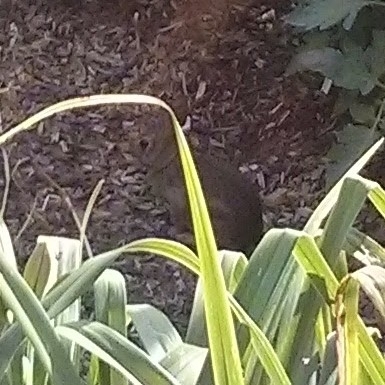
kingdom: Animalia
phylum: Chordata
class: Mammalia
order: Lagomorpha
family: Leporidae
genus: Sylvilagus
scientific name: Sylvilagus floridanus
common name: Eastern cottontail
